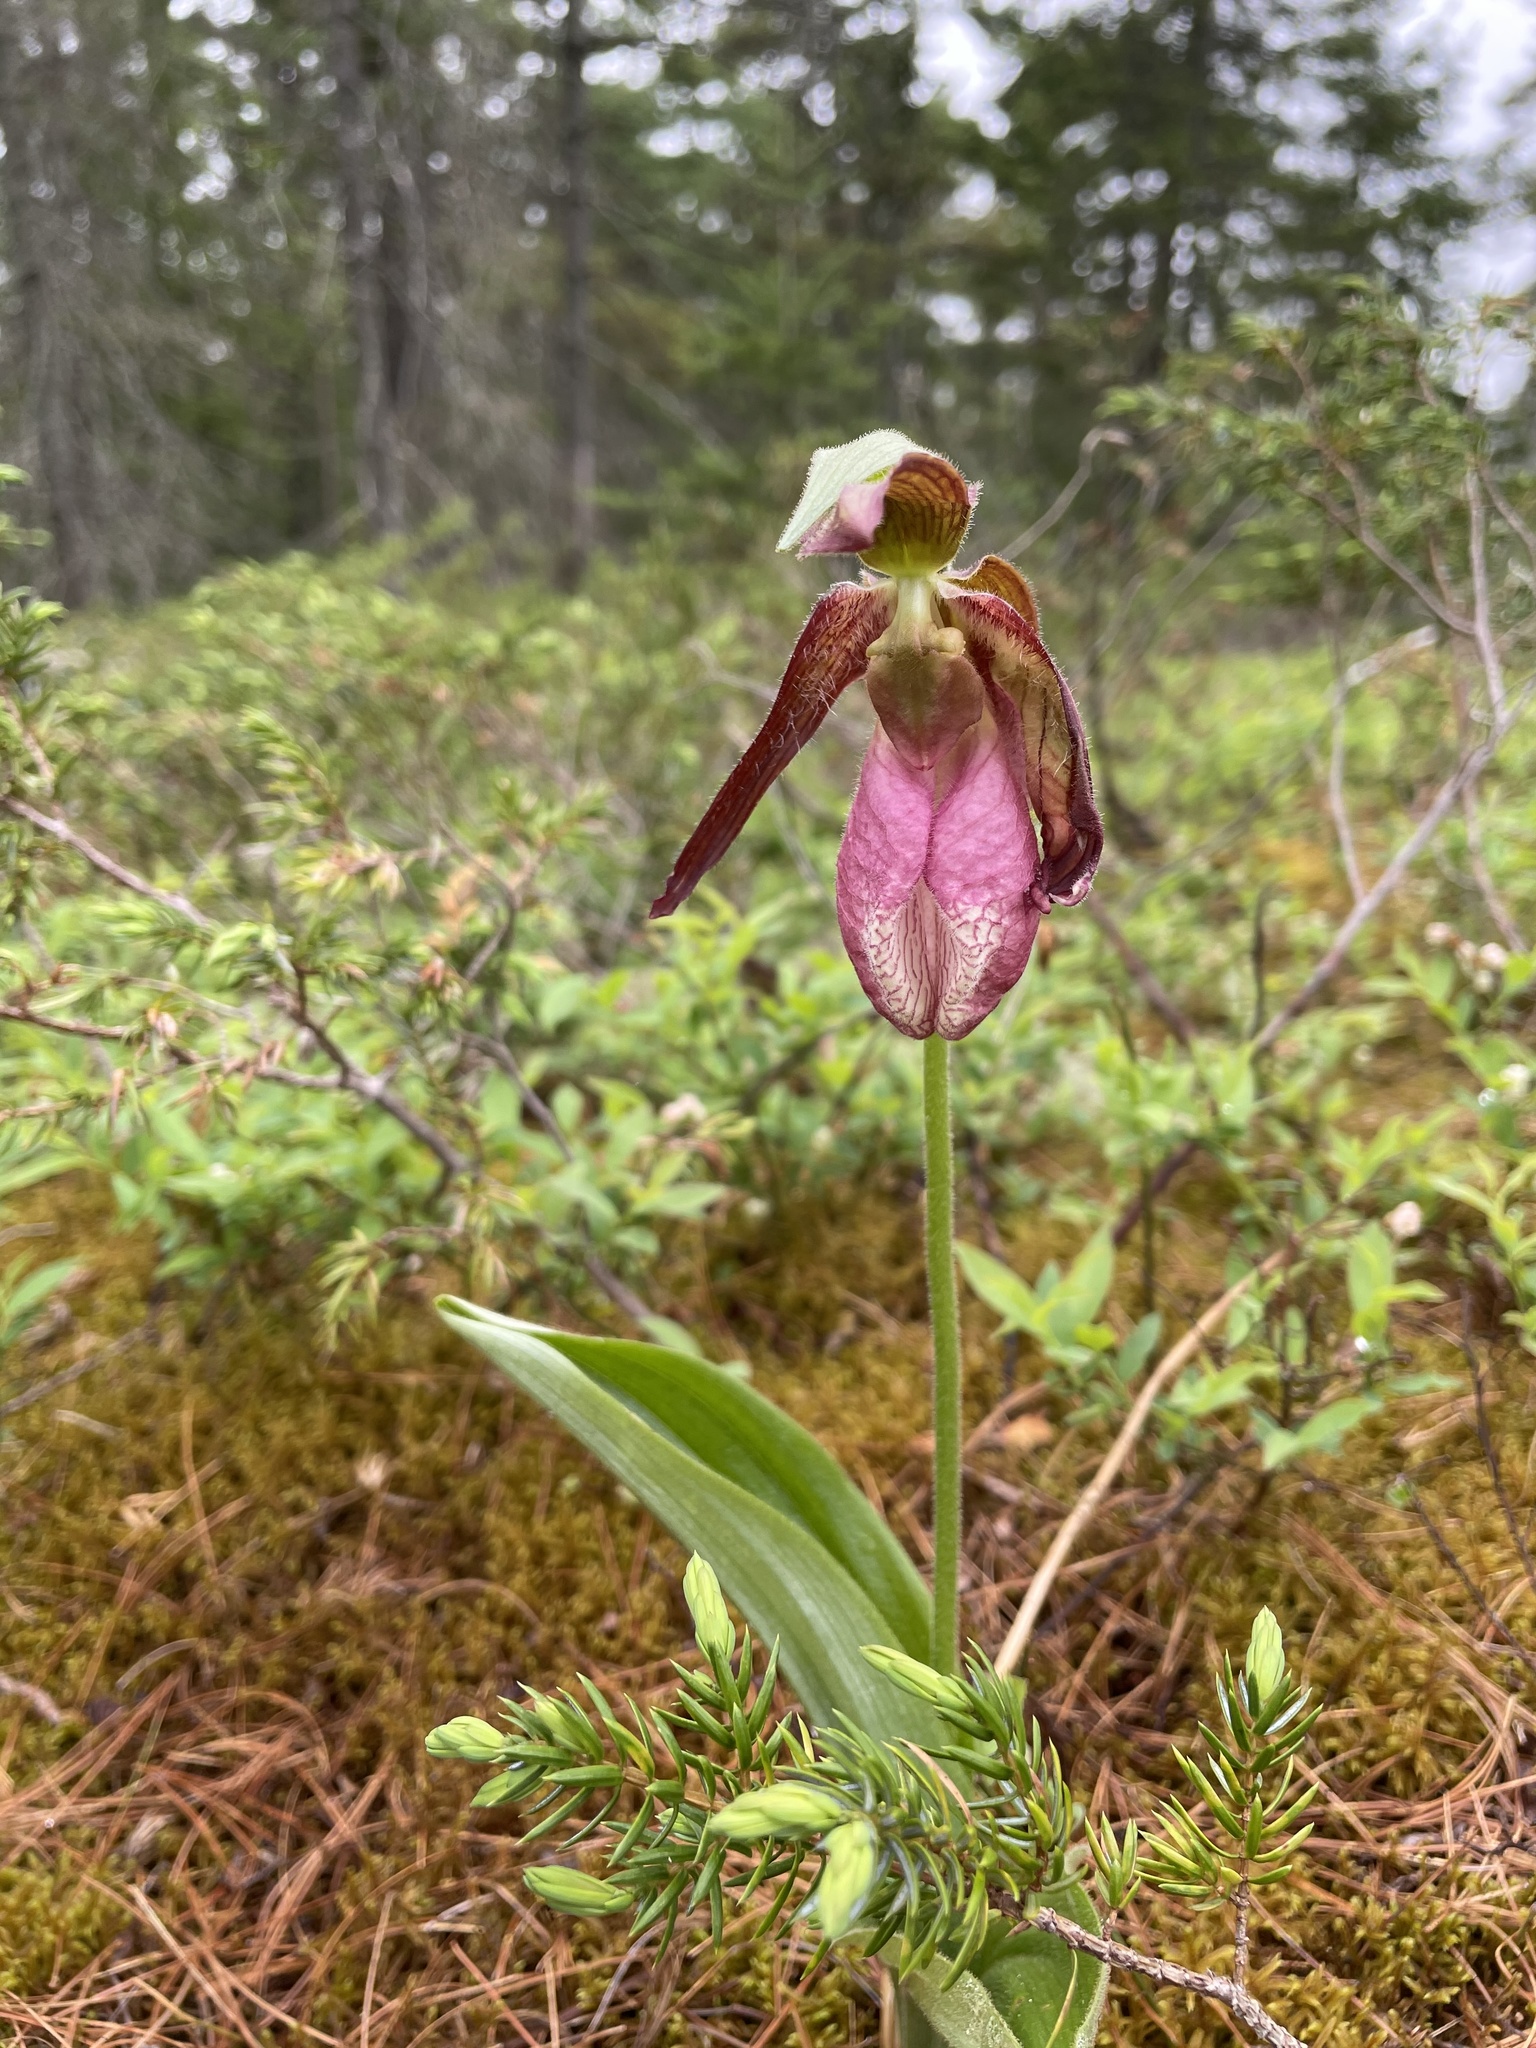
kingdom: Plantae
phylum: Tracheophyta
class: Liliopsida
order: Asparagales
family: Orchidaceae
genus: Cypripedium
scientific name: Cypripedium acaule
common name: Pink lady's-slipper
